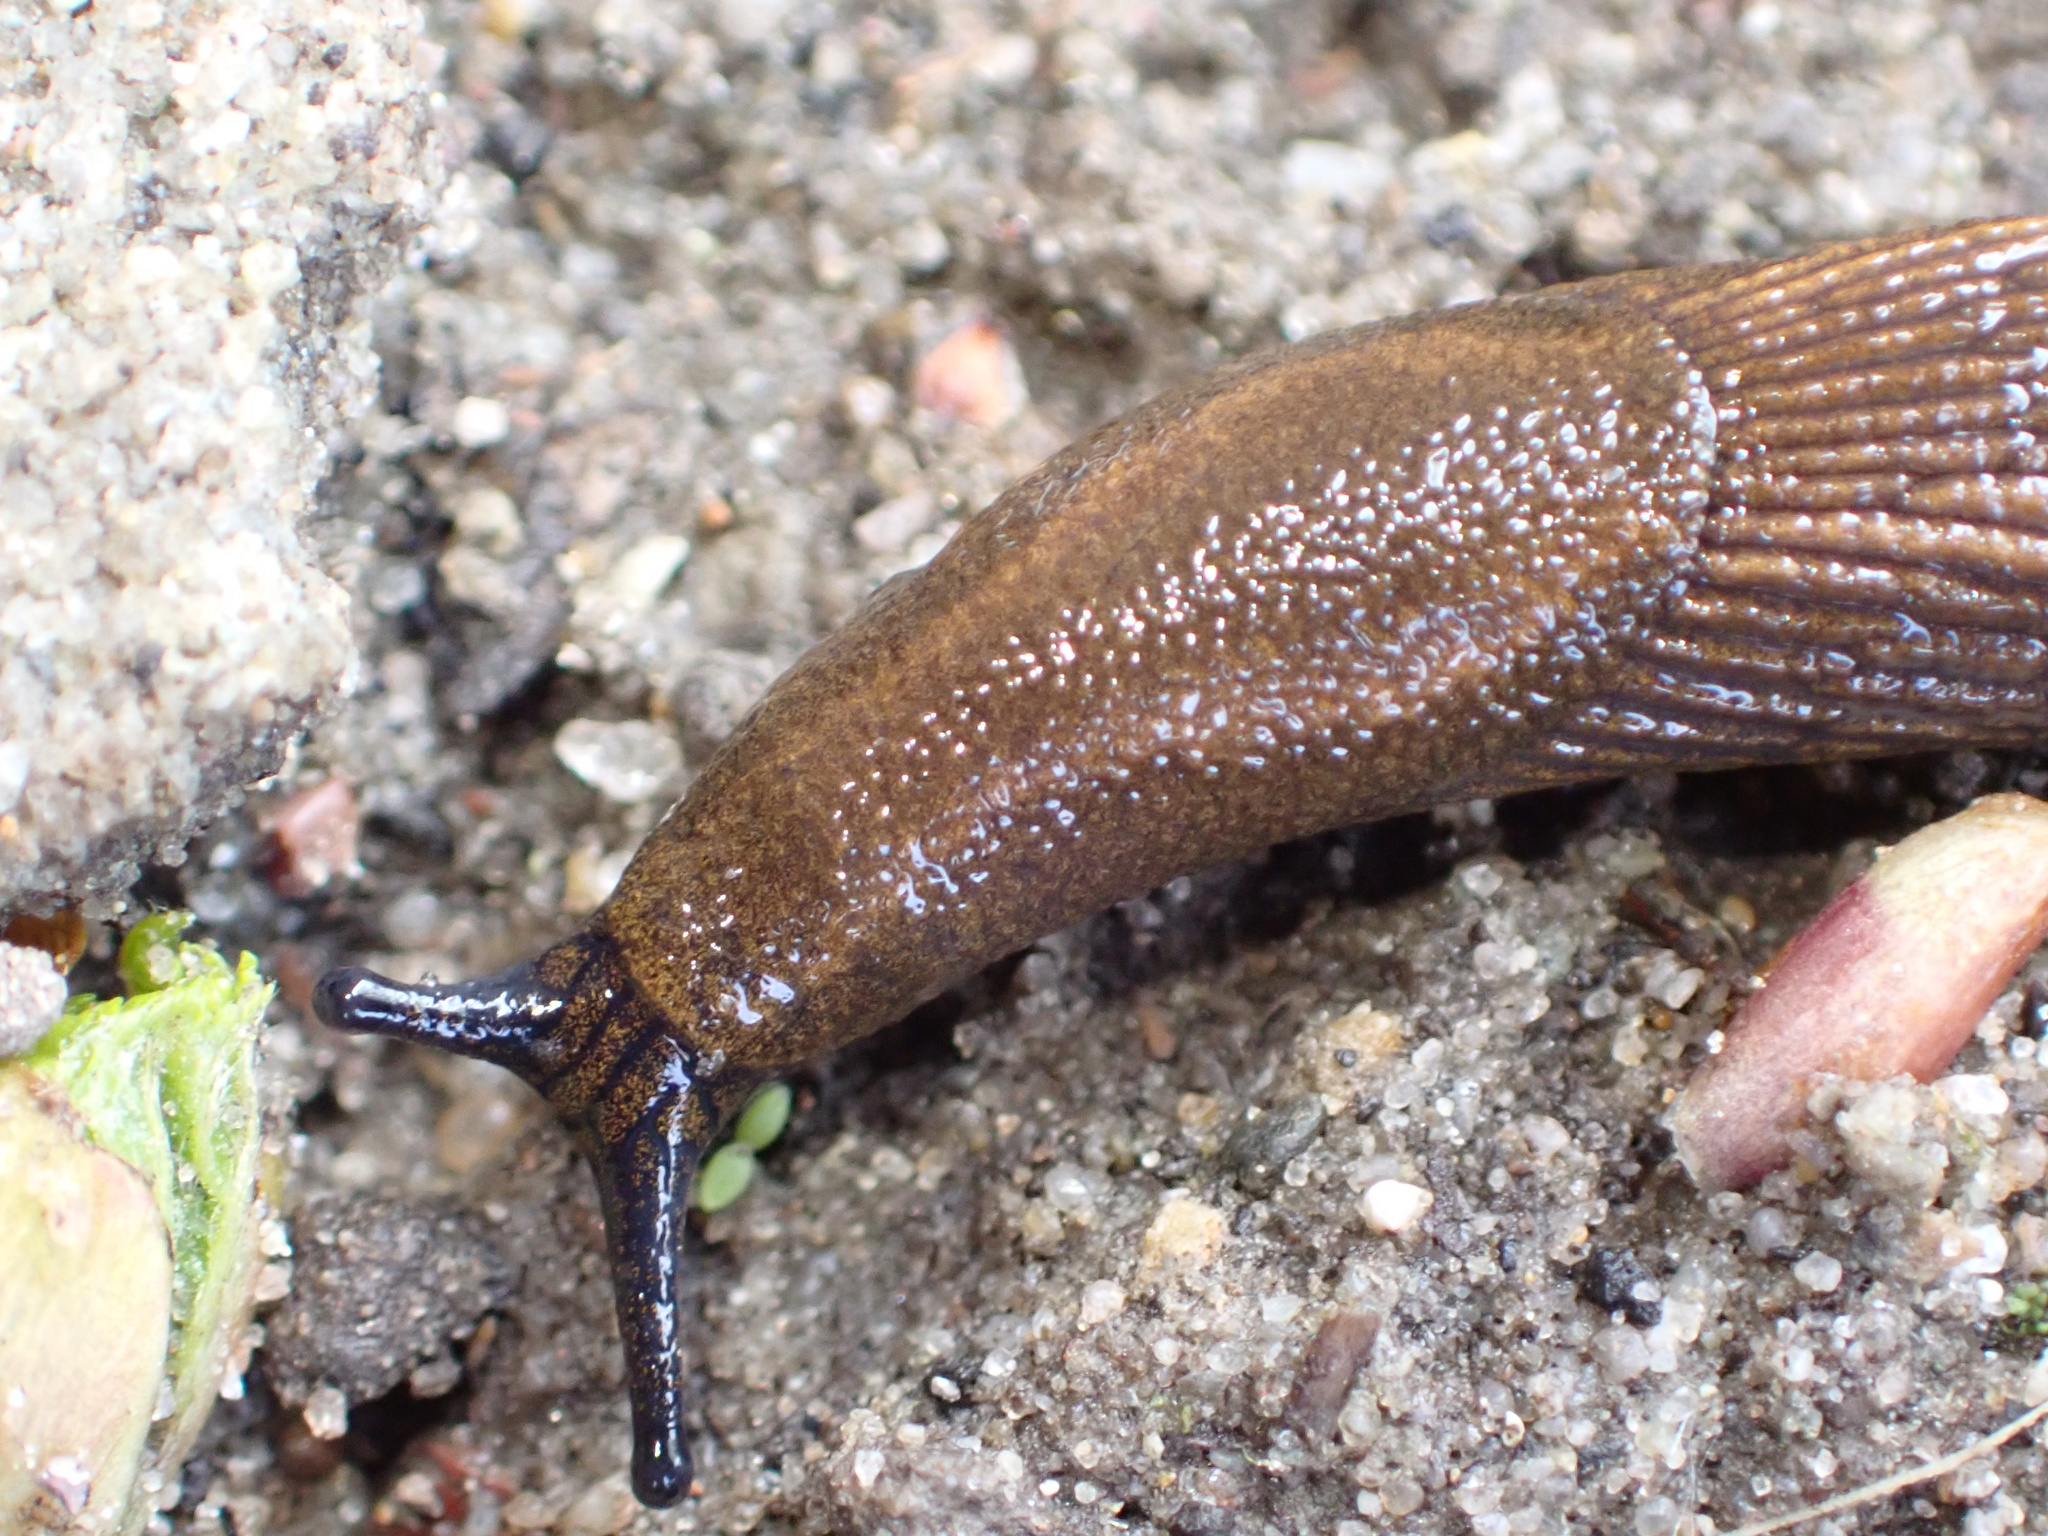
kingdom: Animalia
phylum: Mollusca
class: Gastropoda
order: Stylommatophora
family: Arionidae
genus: Arion
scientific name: Arion vulgaris
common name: Lusitanian slug
